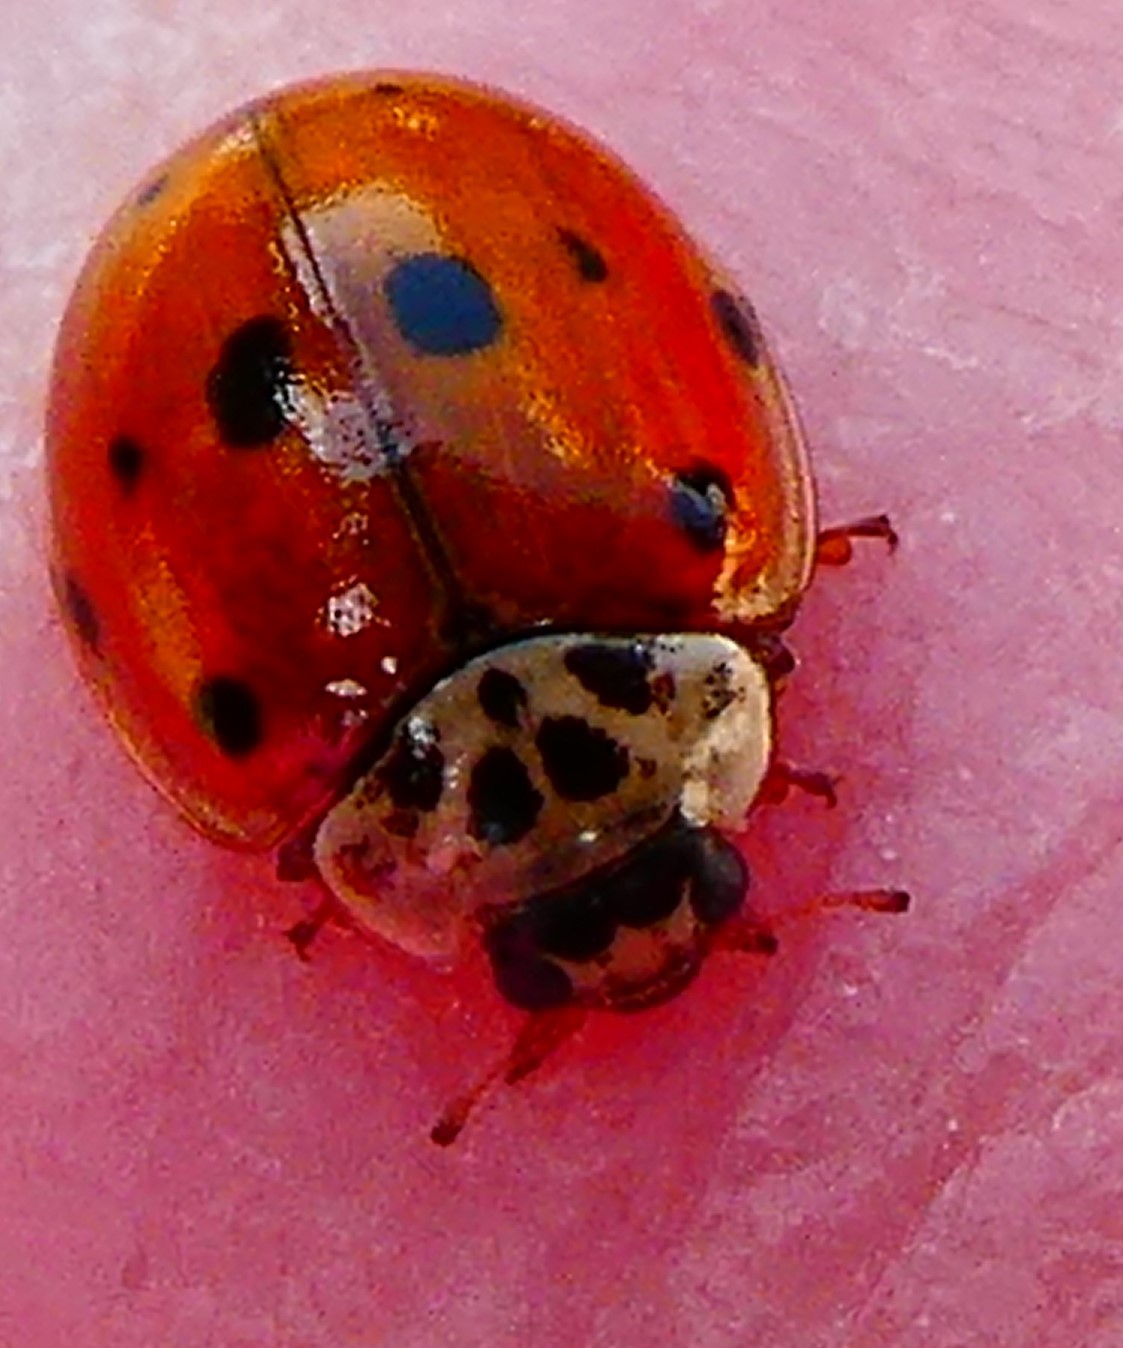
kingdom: Animalia
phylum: Arthropoda
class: Insecta
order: Coleoptera
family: Coccinellidae
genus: Adalia
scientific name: Adalia decempunctata
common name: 10-spot ladybird
